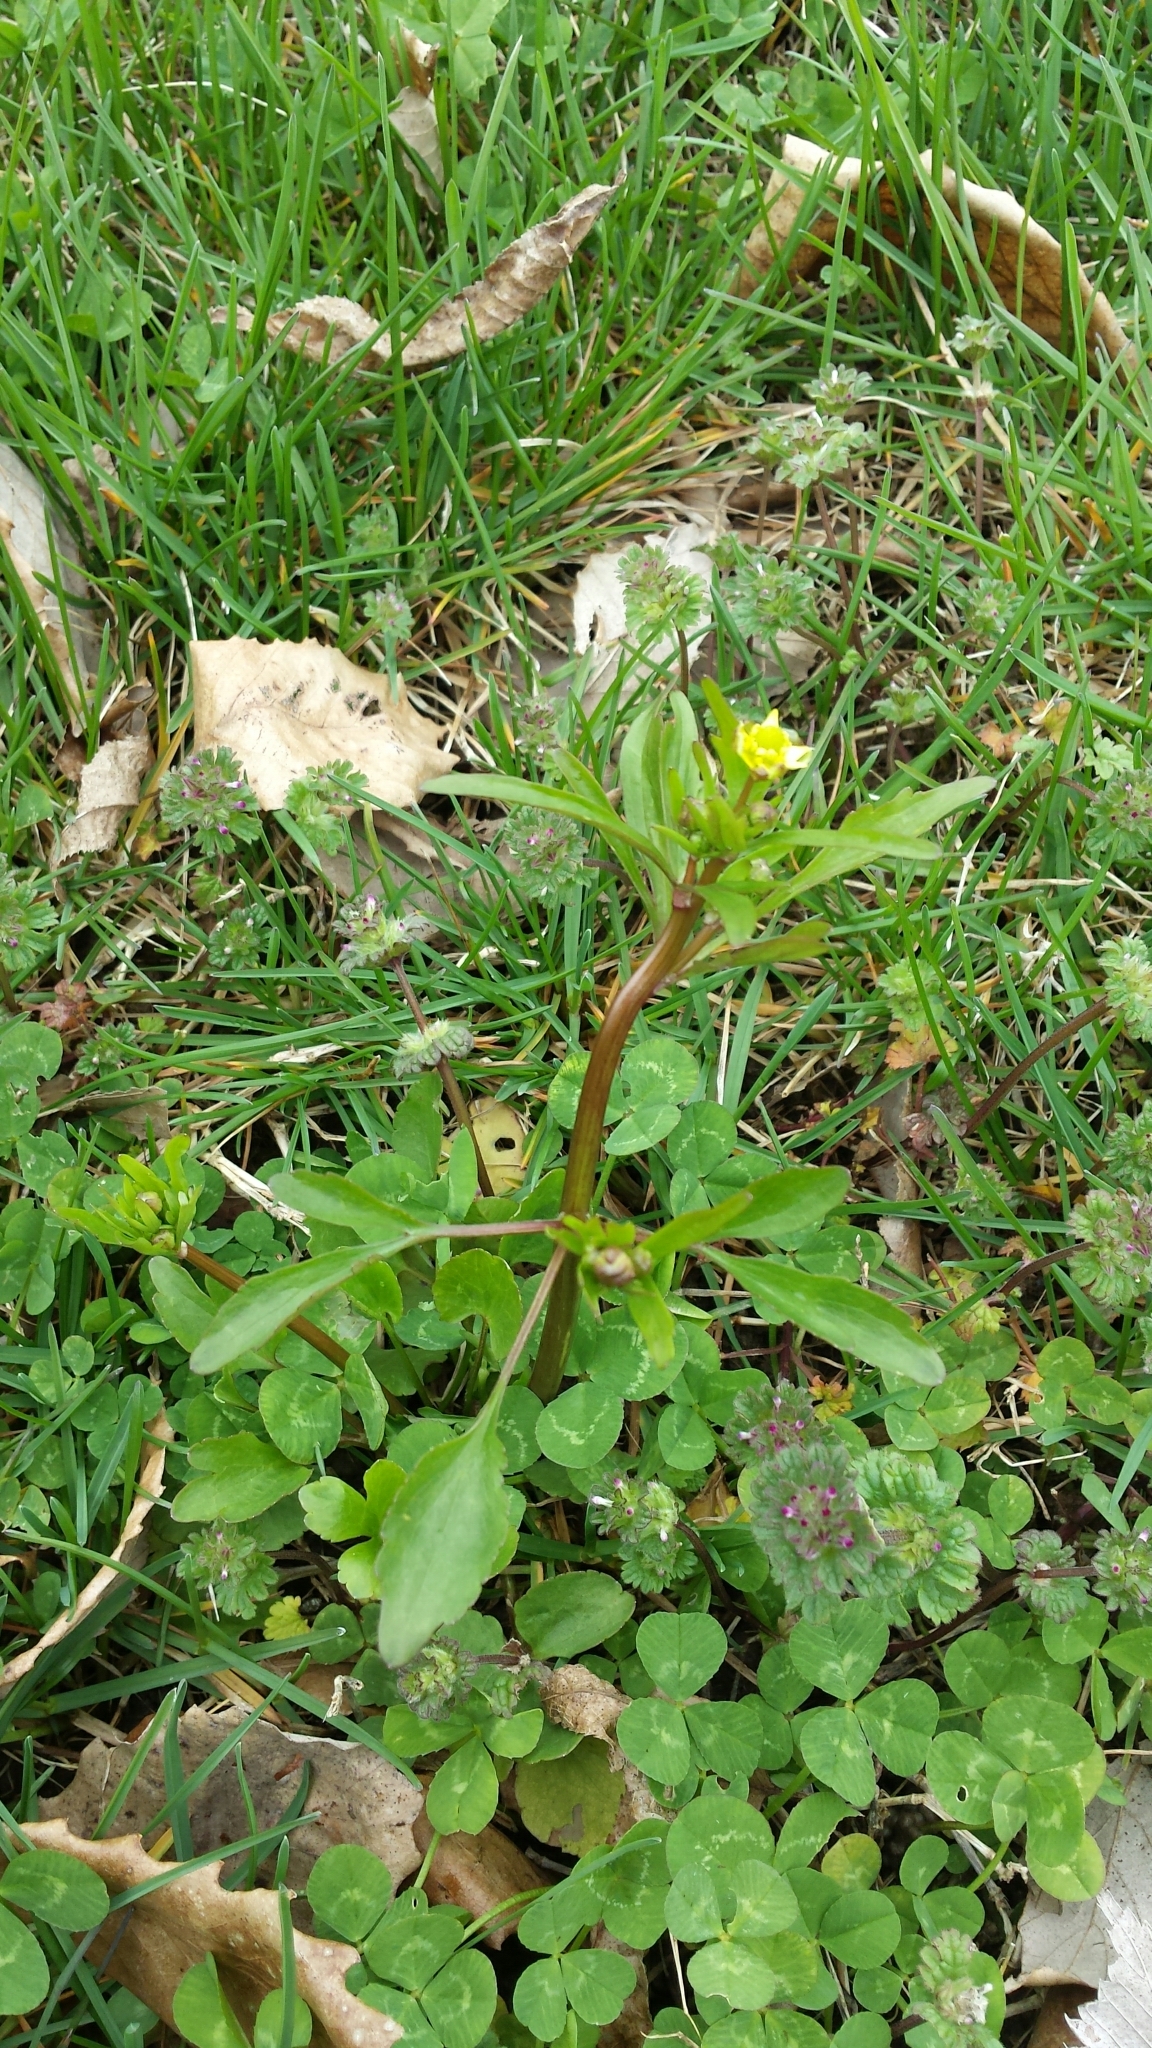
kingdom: Plantae
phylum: Tracheophyta
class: Magnoliopsida
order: Ranunculales
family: Ranunculaceae
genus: Ranunculus
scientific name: Ranunculus abortivus
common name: Early wood buttercup
